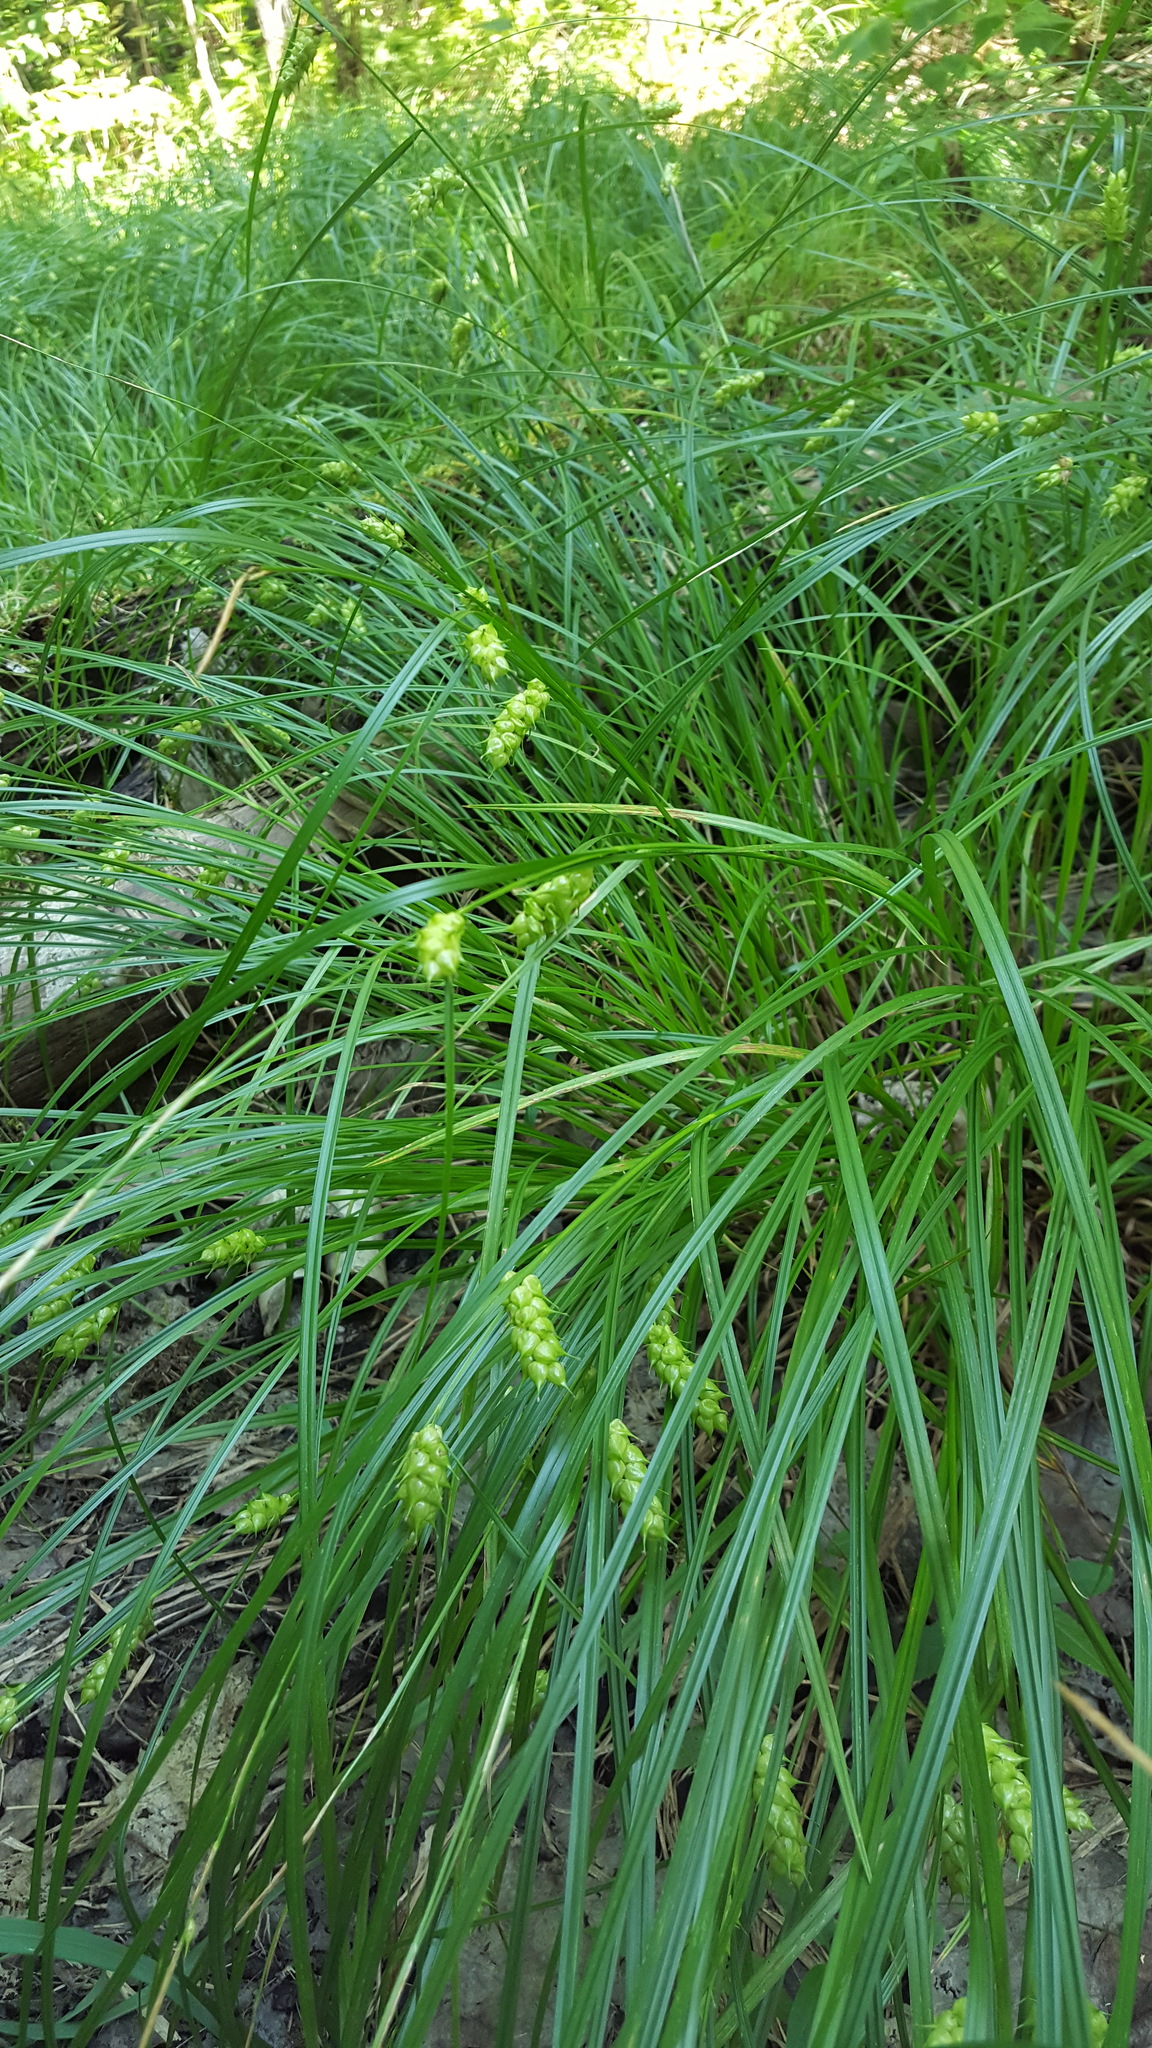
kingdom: Plantae
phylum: Tracheophyta
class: Liliopsida
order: Poales
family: Cyperaceae
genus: Carex
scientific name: Carex tuckermanii
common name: Tuckerman's sedge
